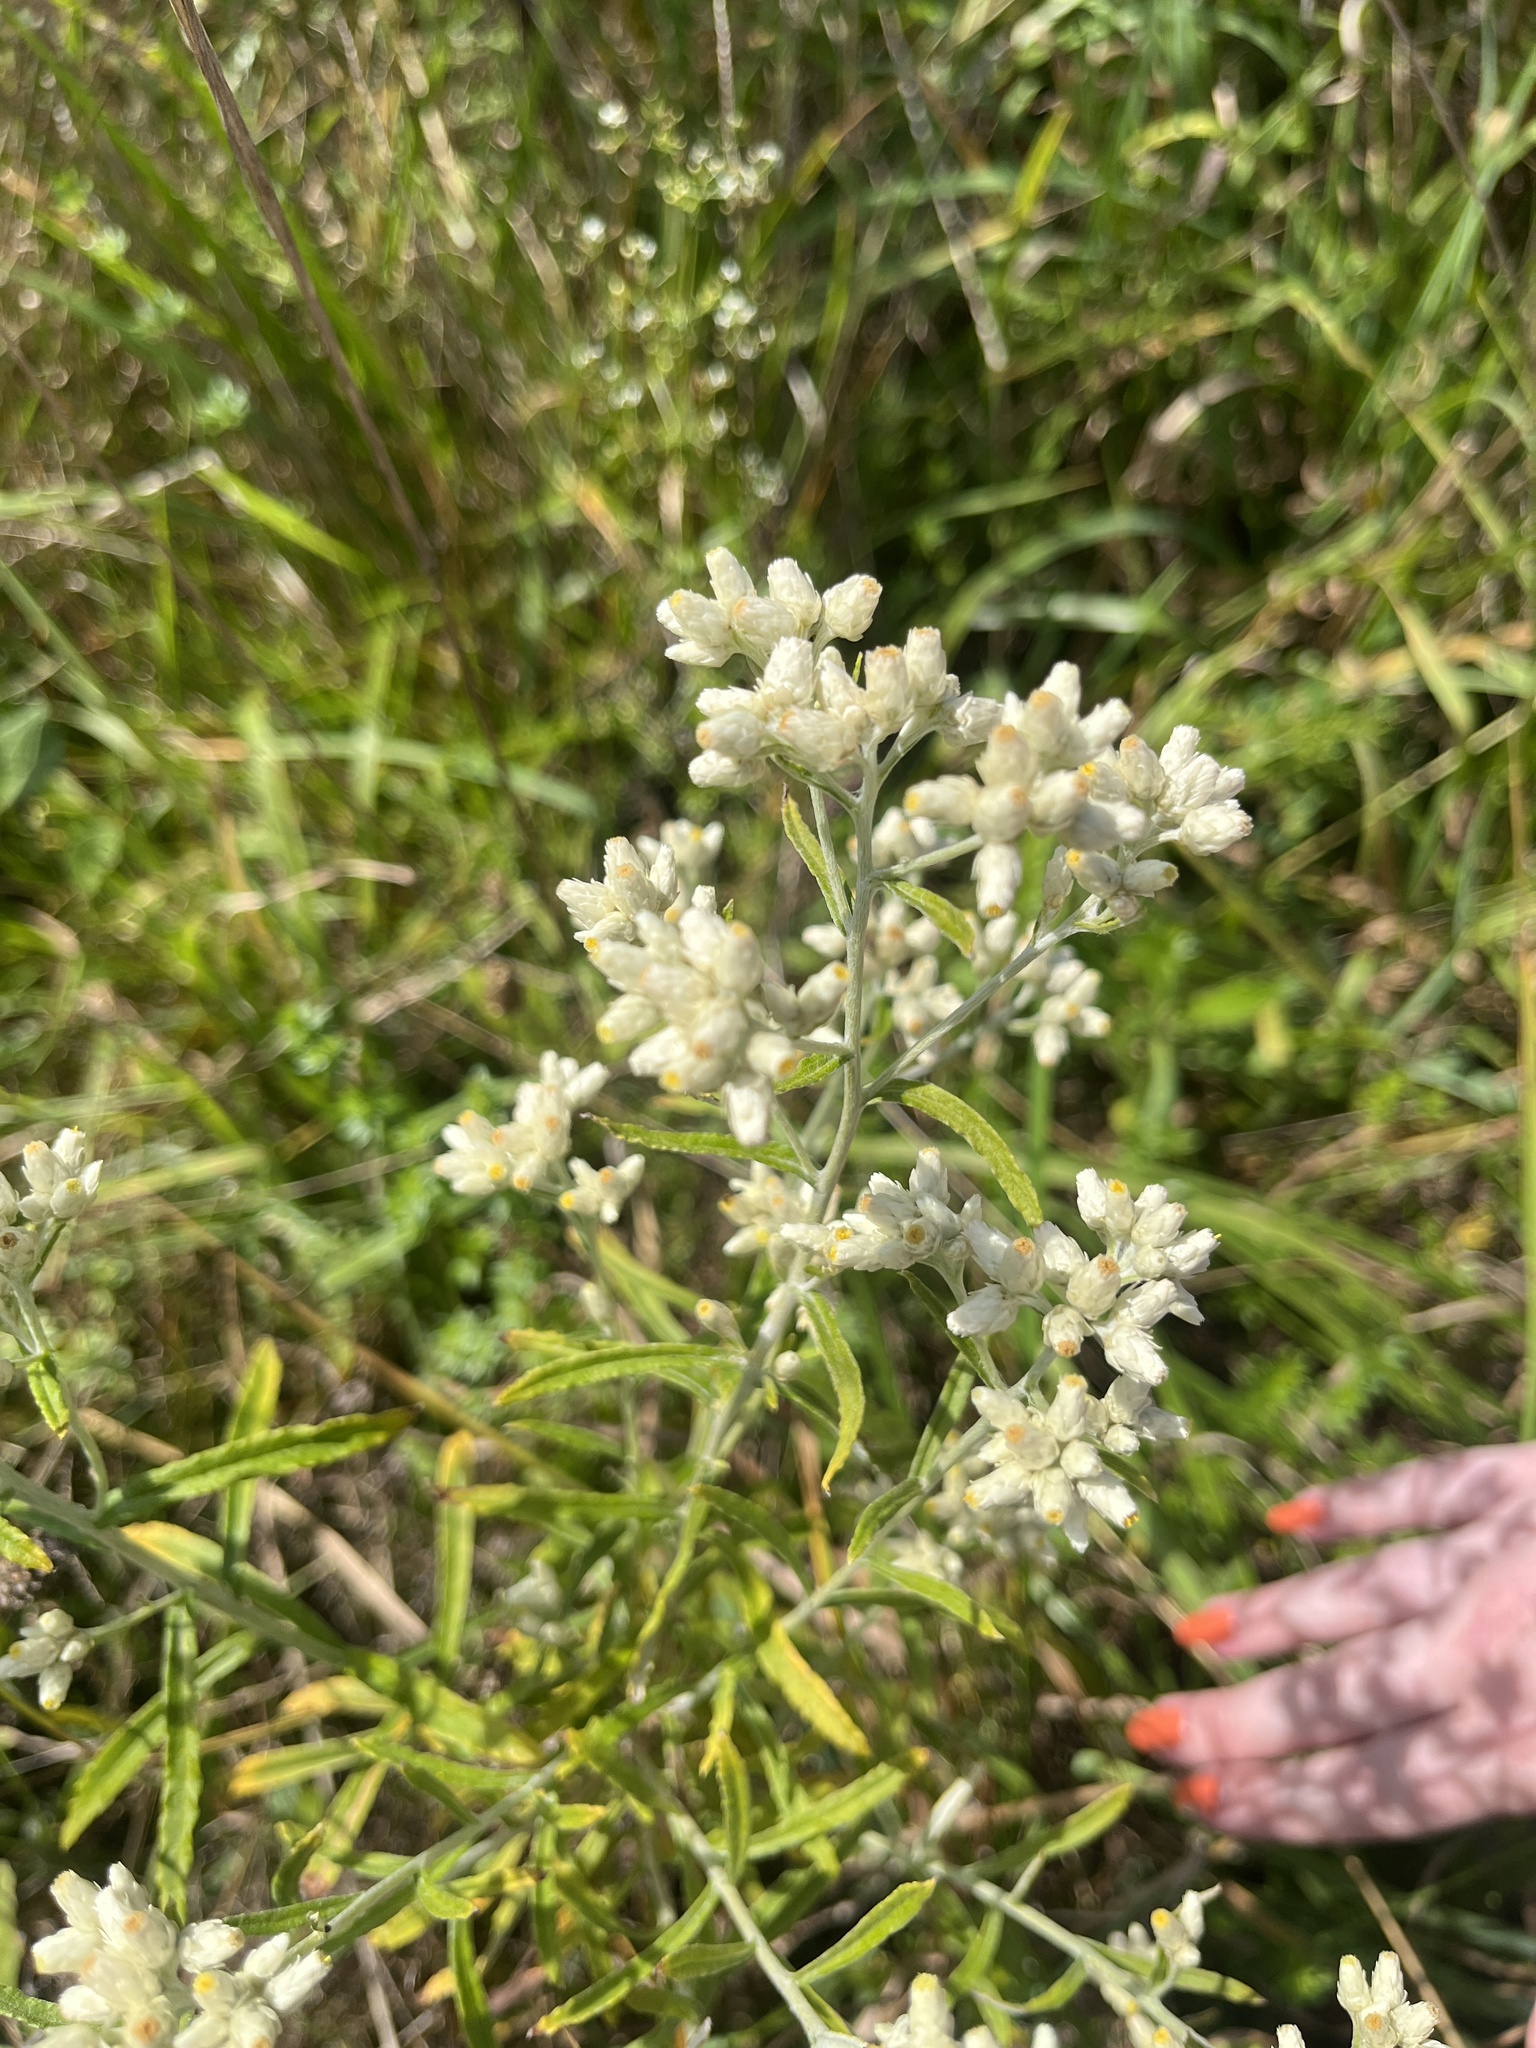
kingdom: Plantae
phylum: Tracheophyta
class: Magnoliopsida
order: Asterales
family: Asteraceae
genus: Pseudognaphalium
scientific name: Pseudognaphalium obtusifolium
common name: Eastern rabbit-tobacco
